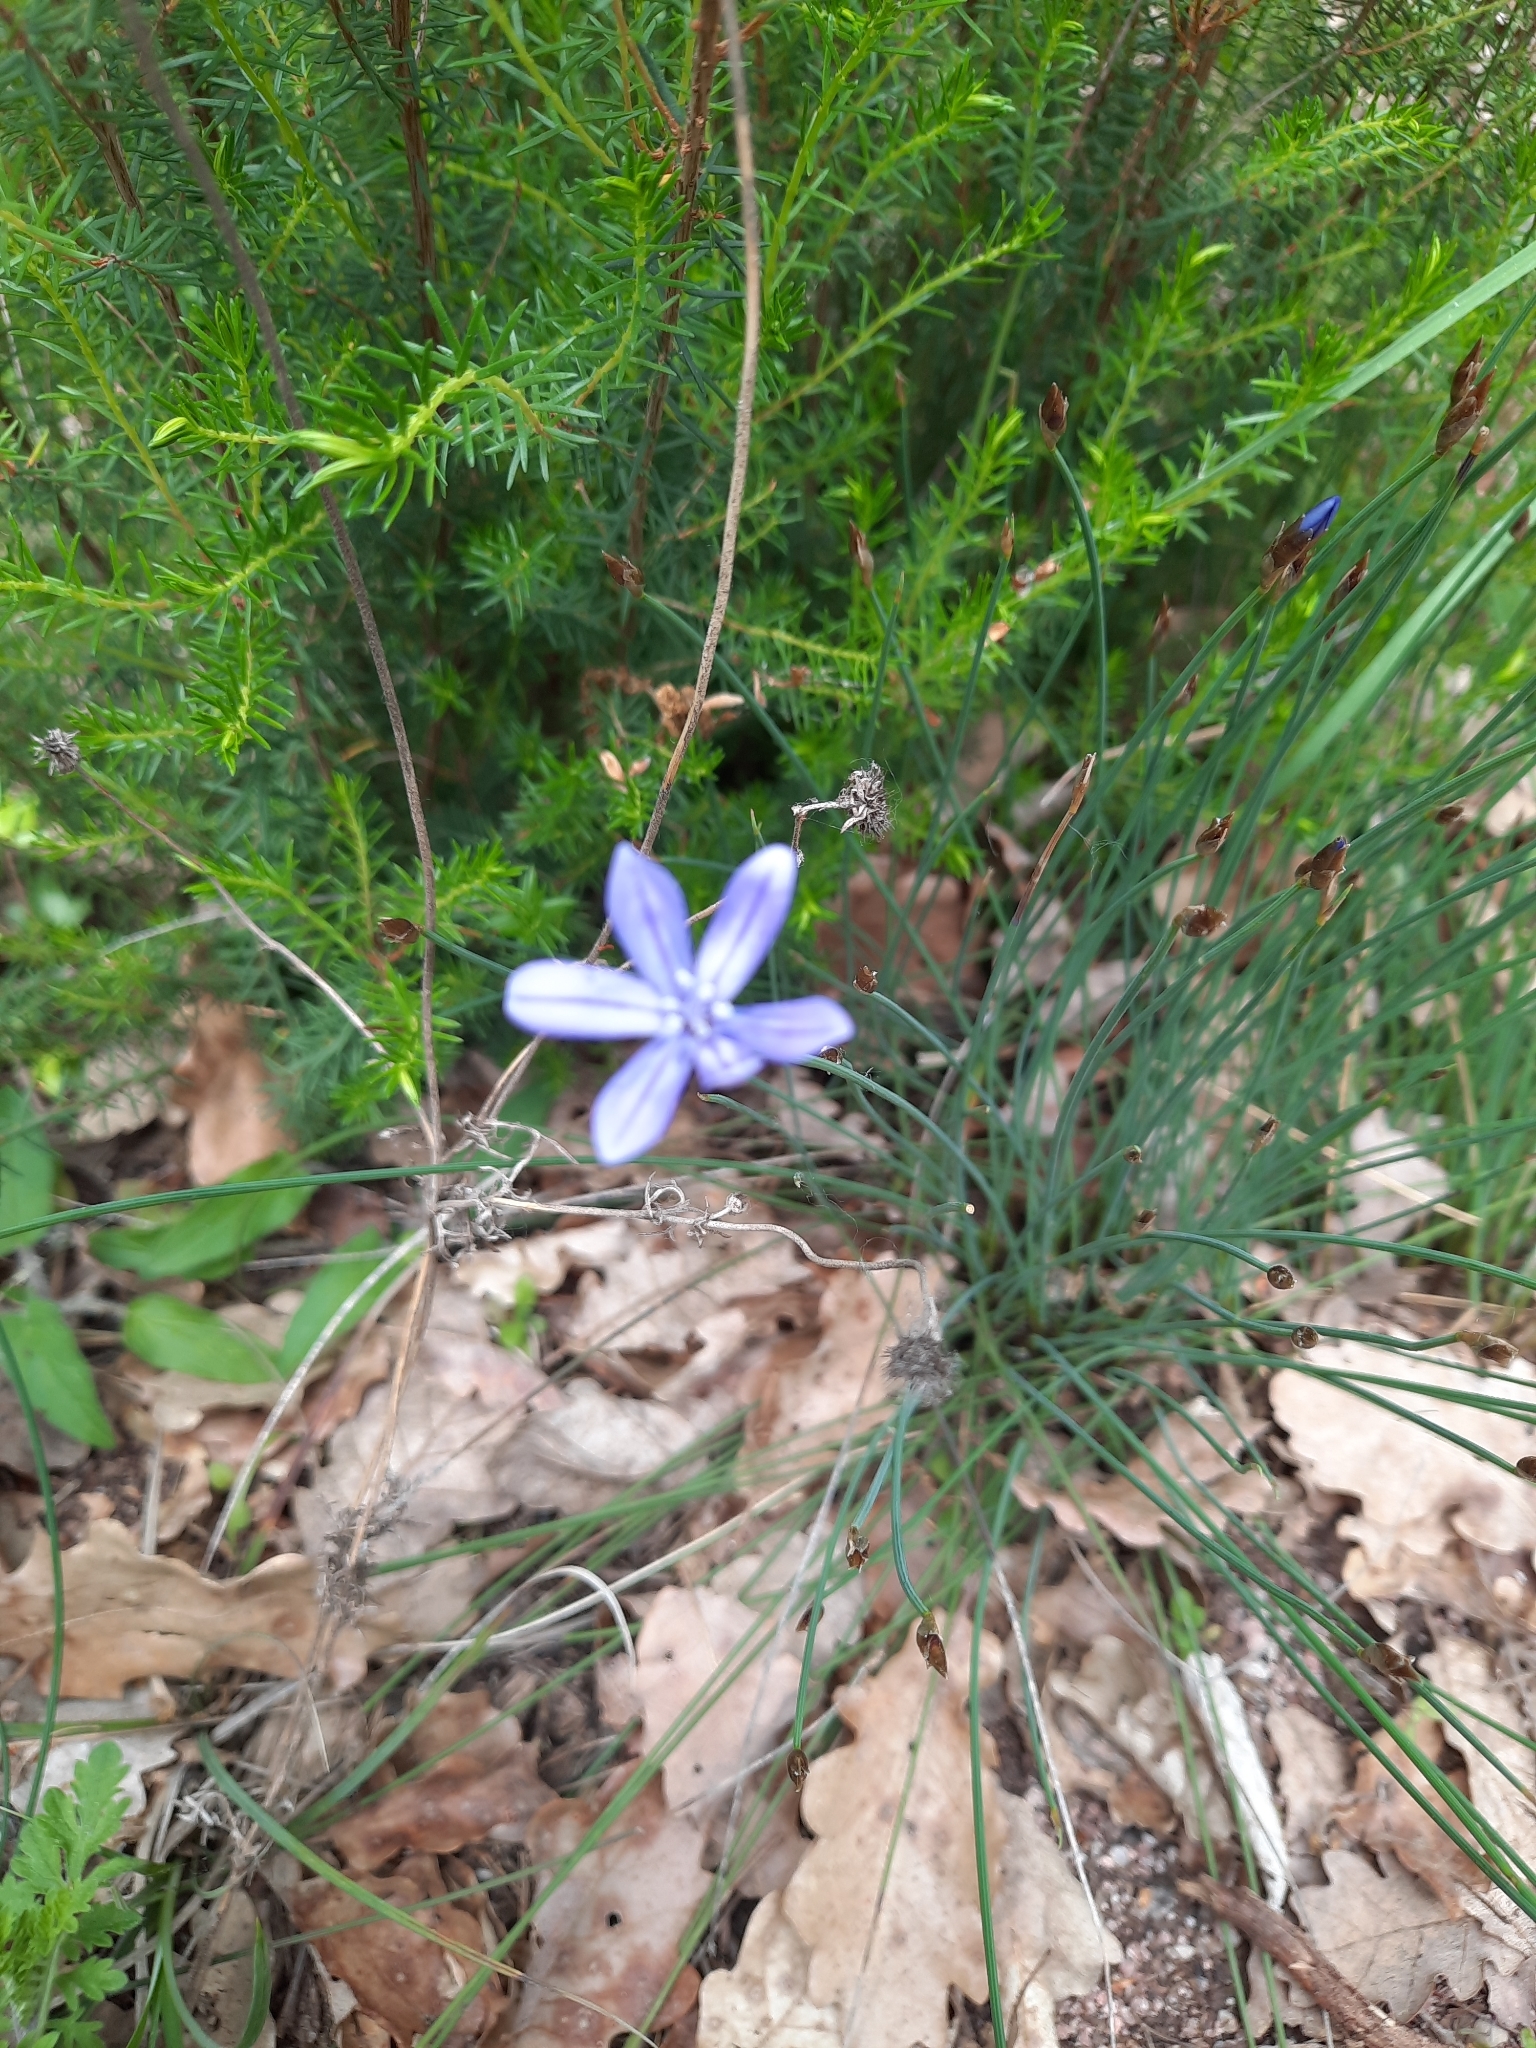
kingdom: Plantae
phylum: Tracheophyta
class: Liliopsida
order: Asparagales
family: Asparagaceae
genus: Aphyllanthes
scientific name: Aphyllanthes monspeliensis
